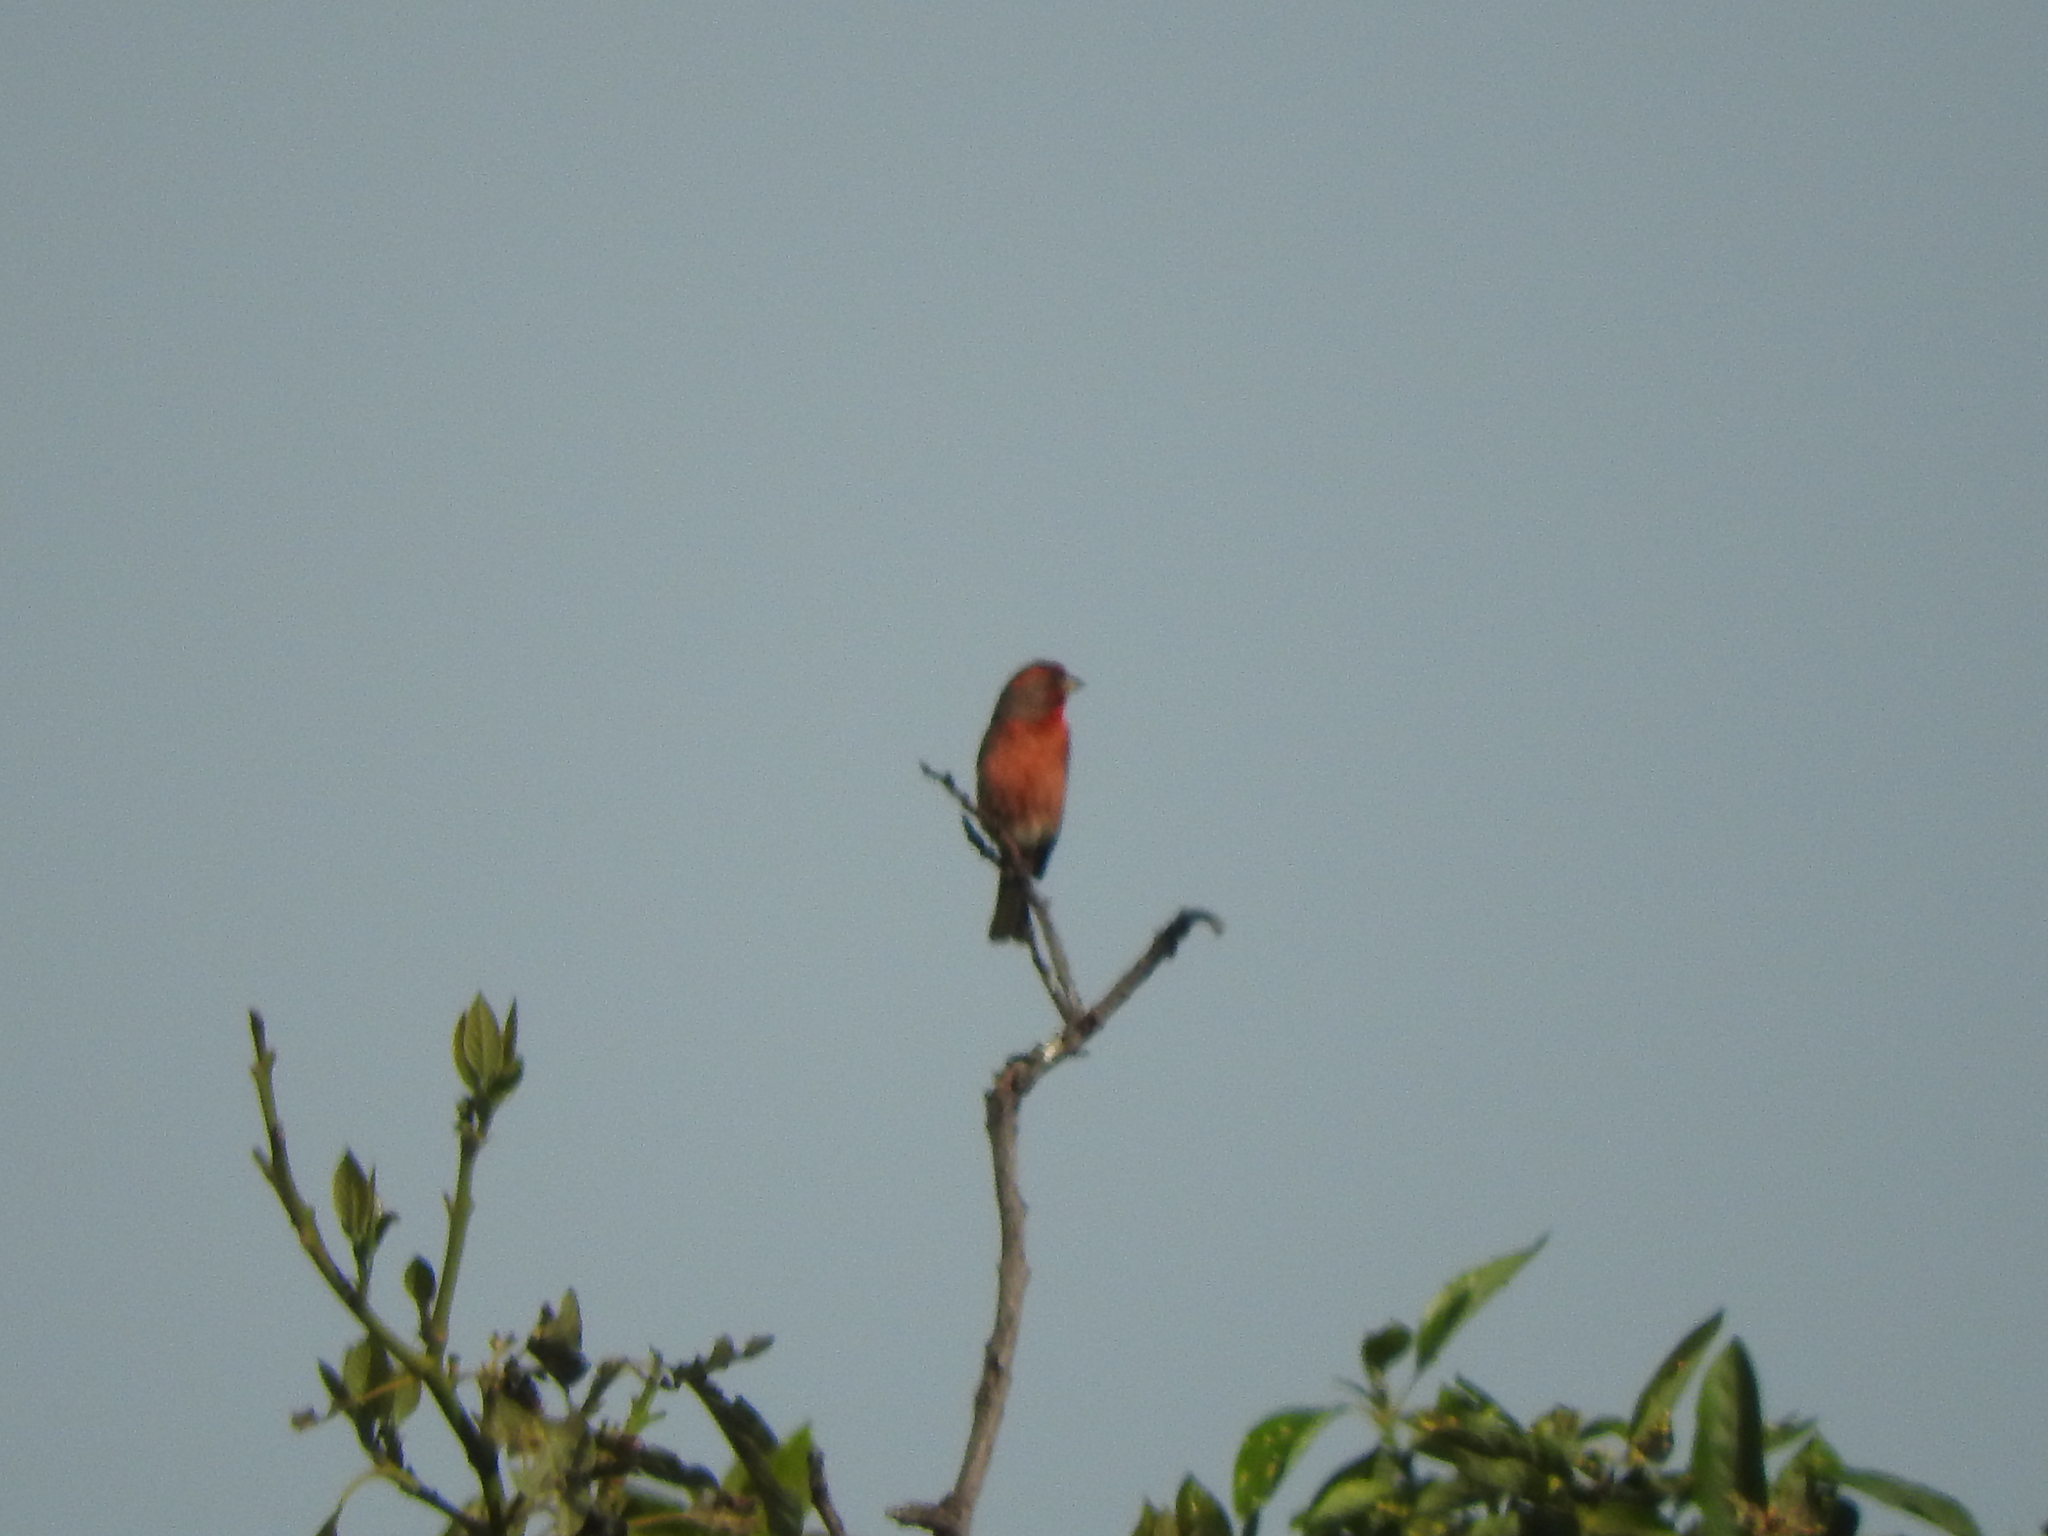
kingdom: Animalia
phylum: Chordata
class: Aves
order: Passeriformes
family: Fringillidae
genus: Haemorhous
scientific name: Haemorhous mexicanus
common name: House finch
